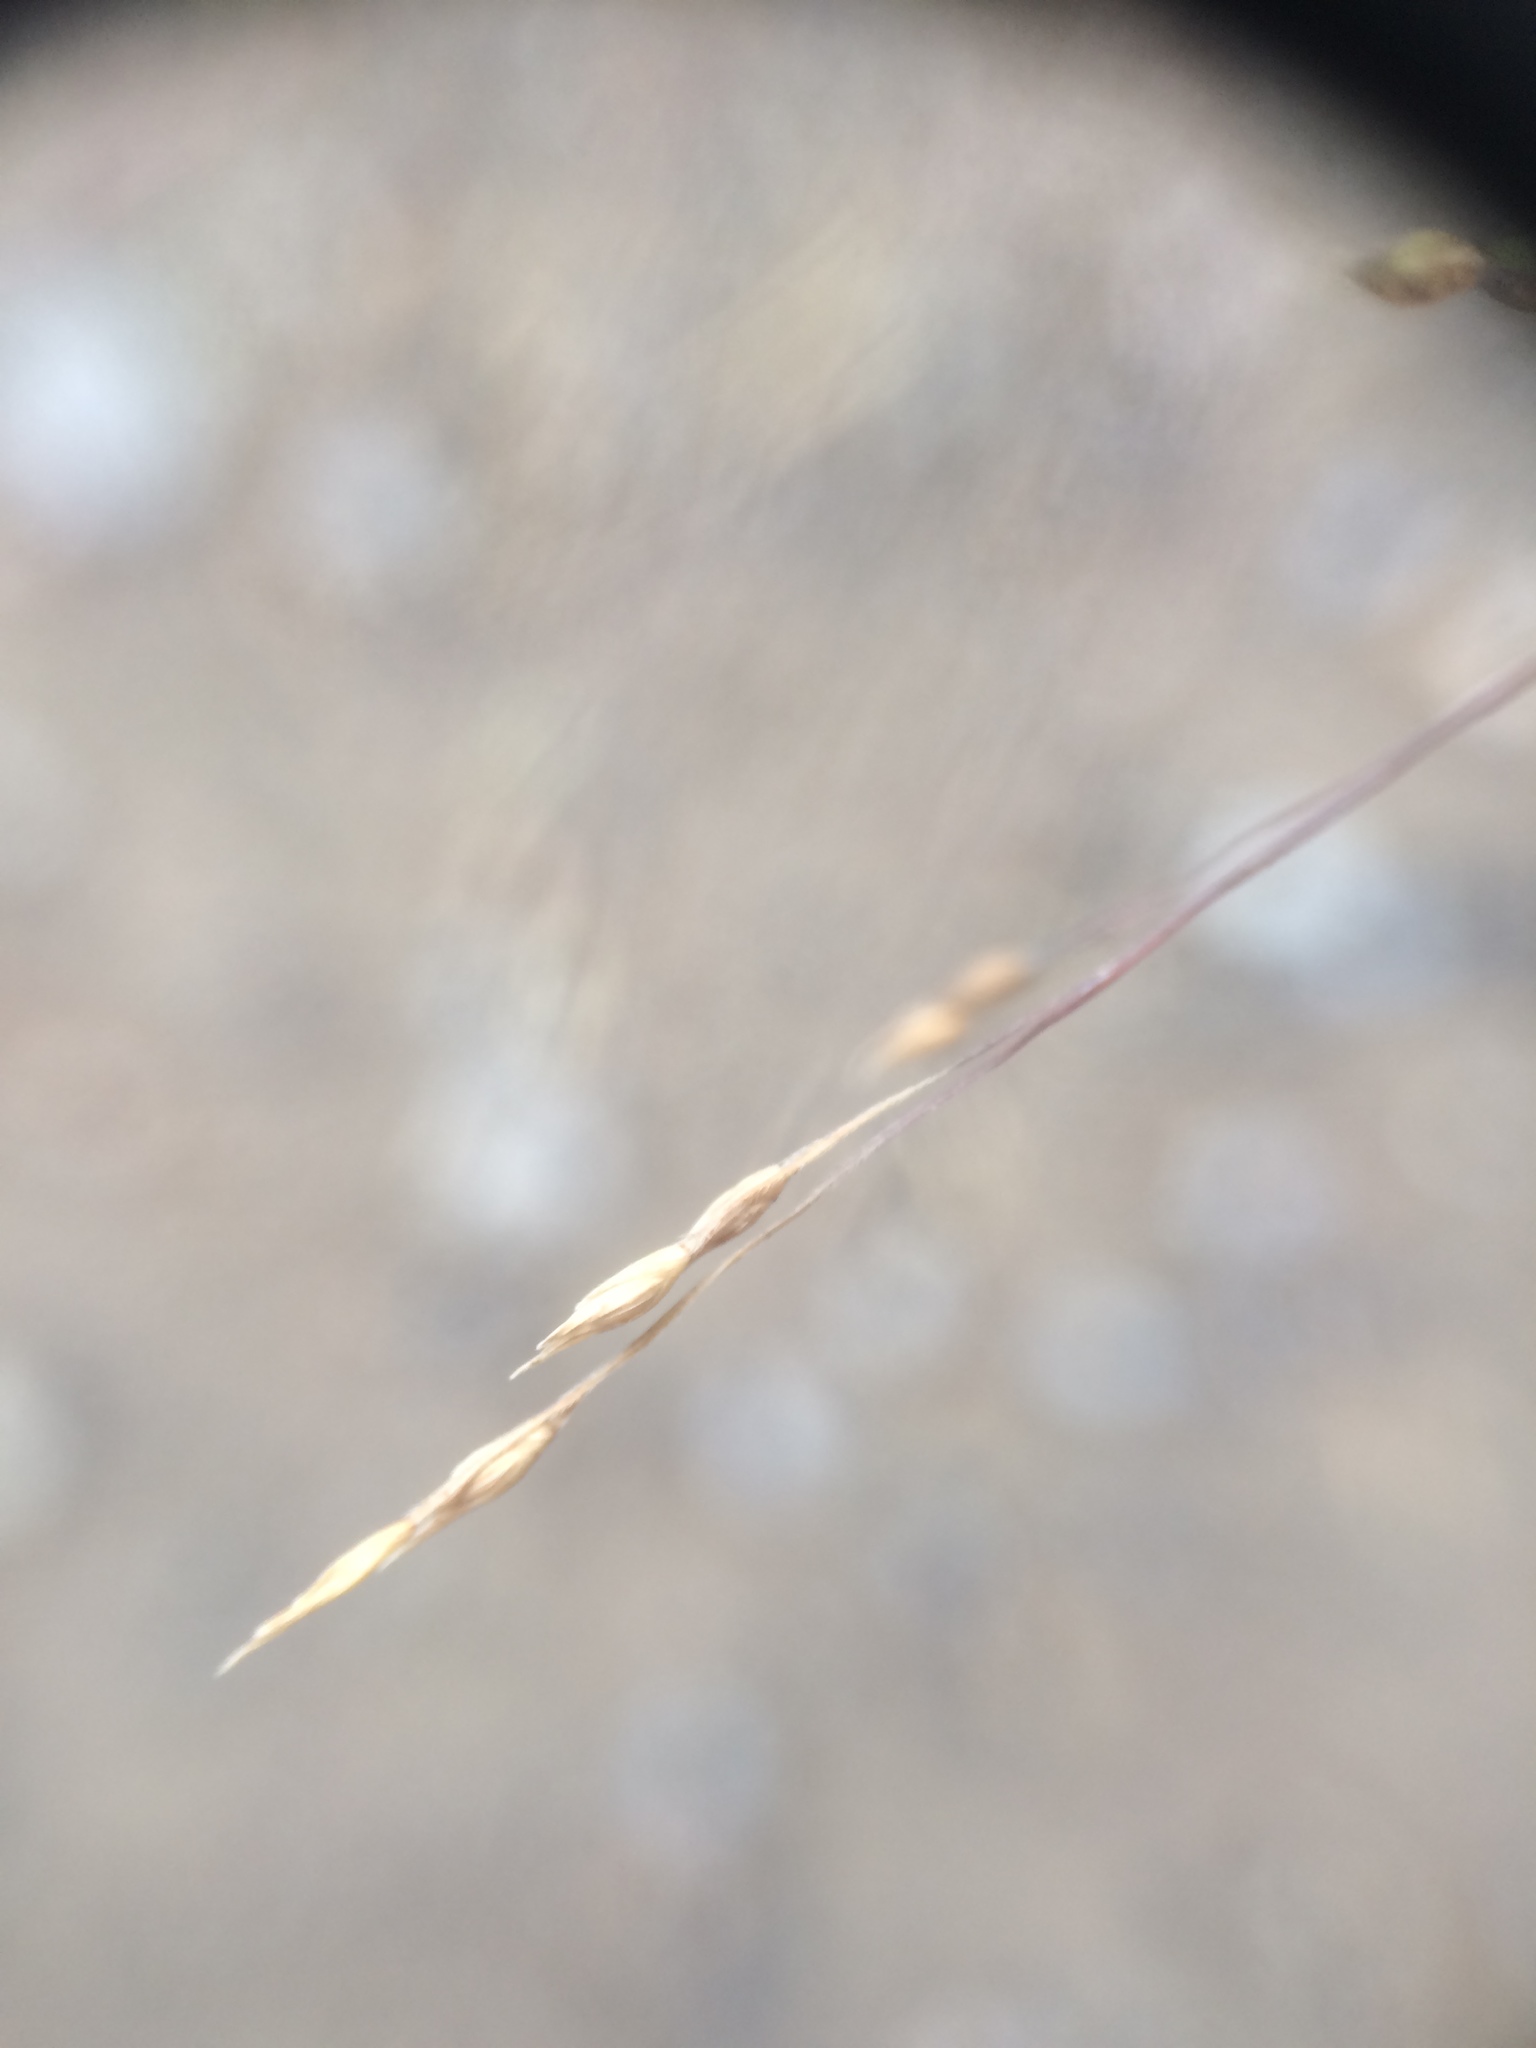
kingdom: Plantae
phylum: Tracheophyta
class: Liliopsida
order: Poales
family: Poaceae
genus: Panicum
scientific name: Panicum capillare
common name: Witch-grass
